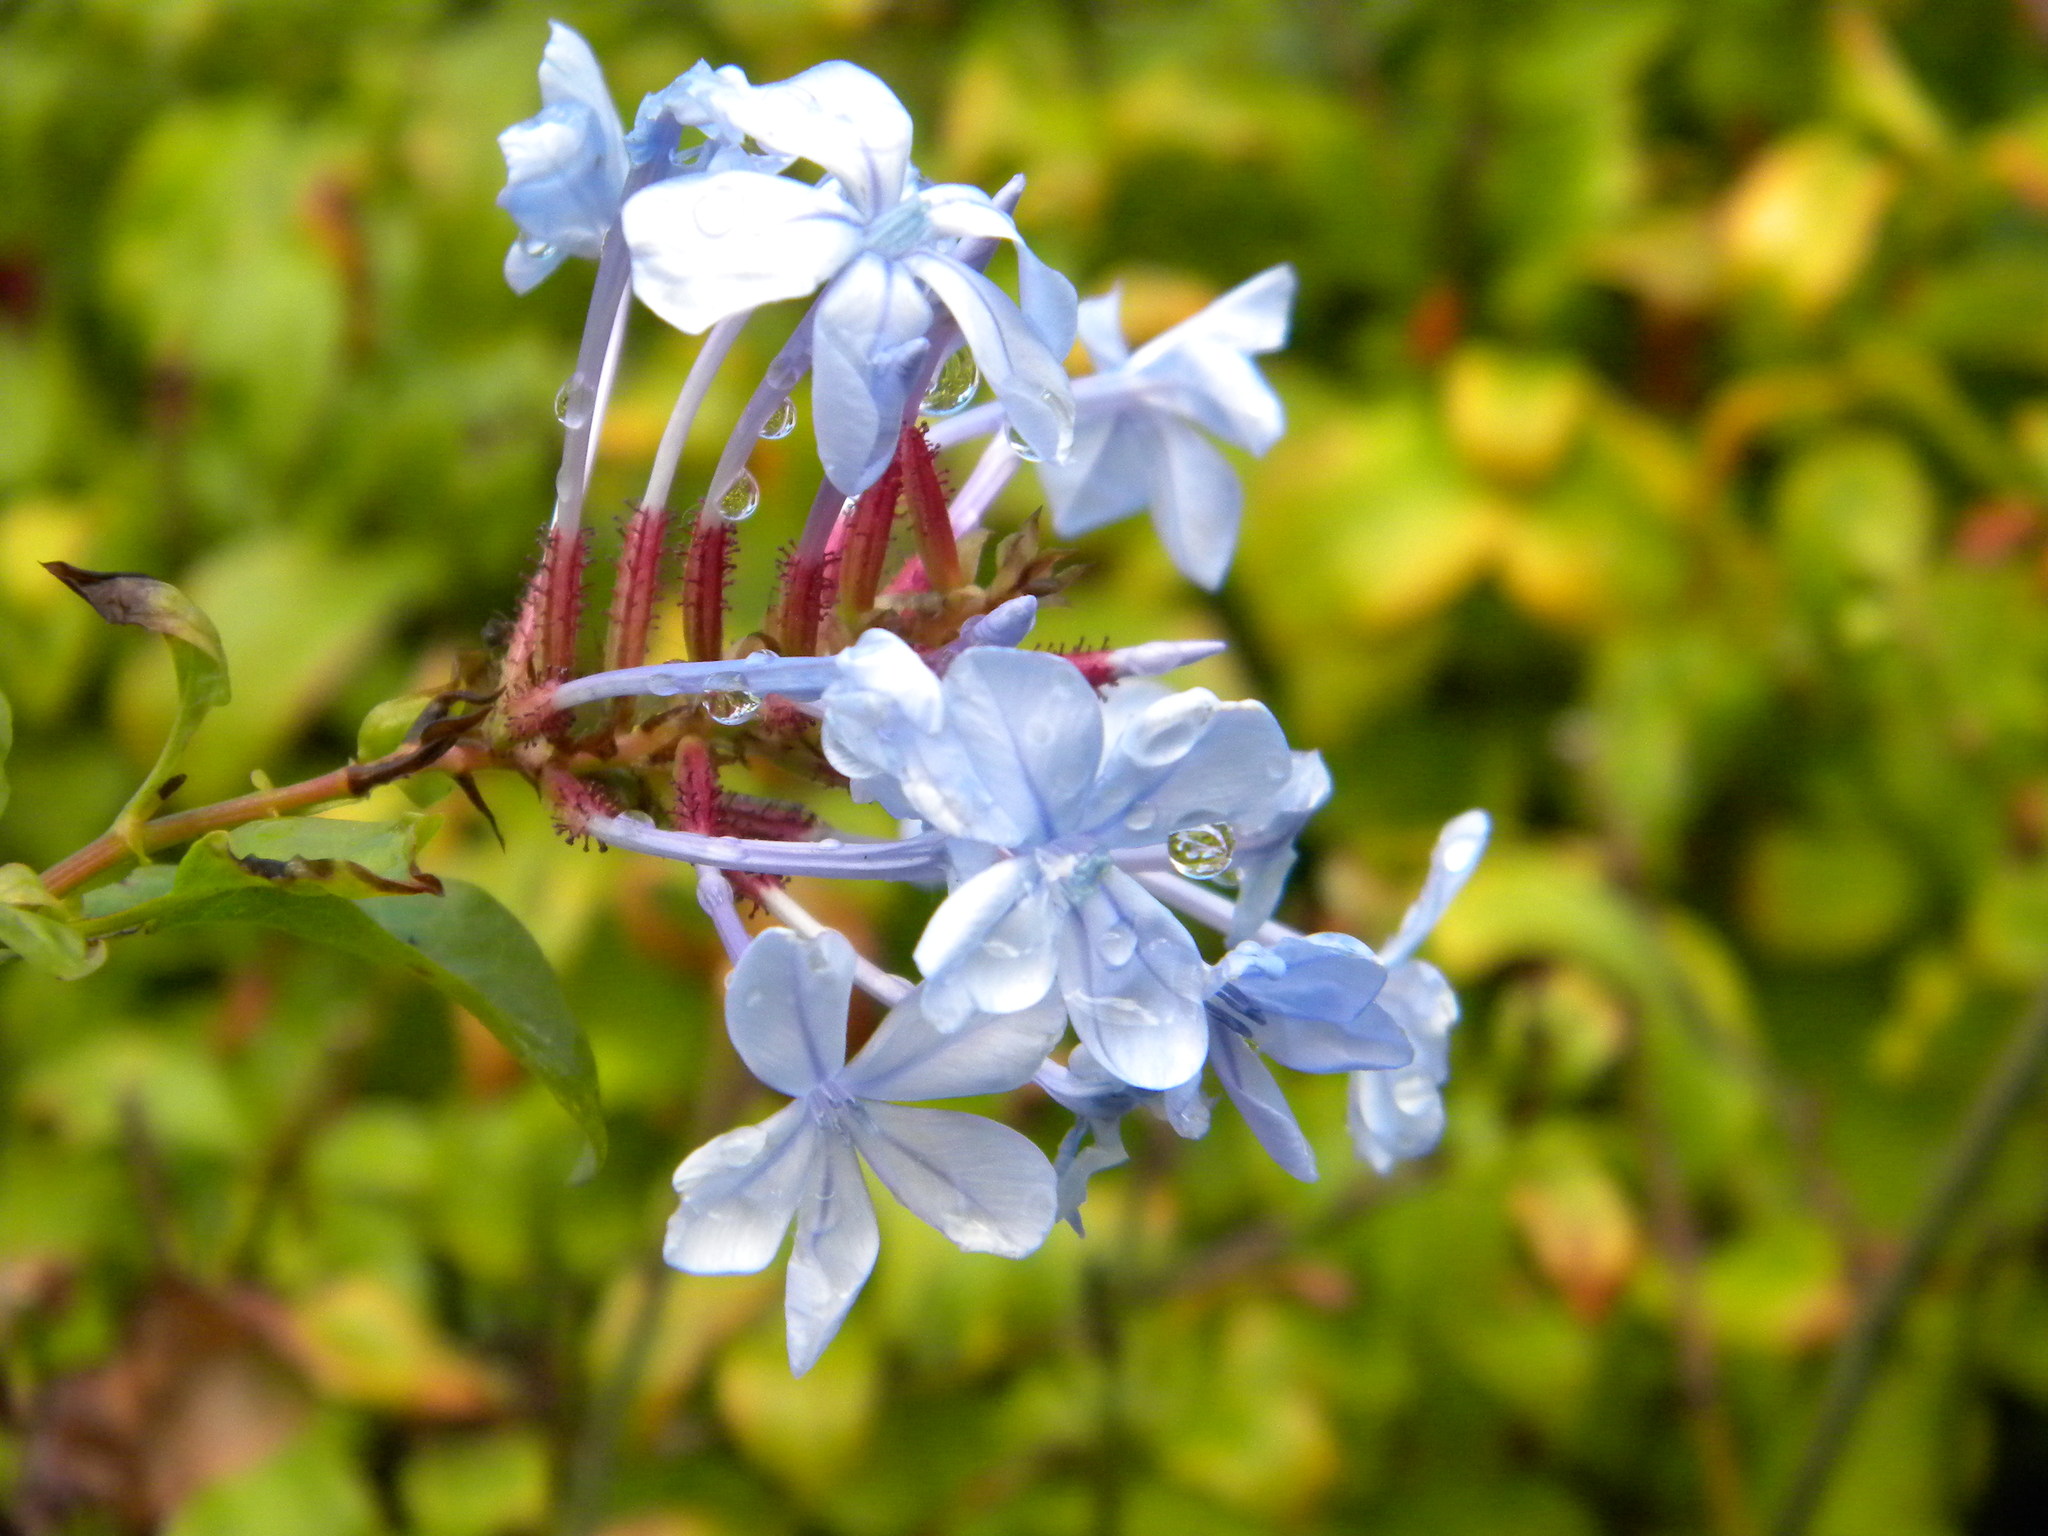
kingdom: Plantae
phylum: Tracheophyta
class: Magnoliopsida
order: Caryophyllales
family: Plumbaginaceae
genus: Plumbago
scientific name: Plumbago auriculata
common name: Cape leadwort
